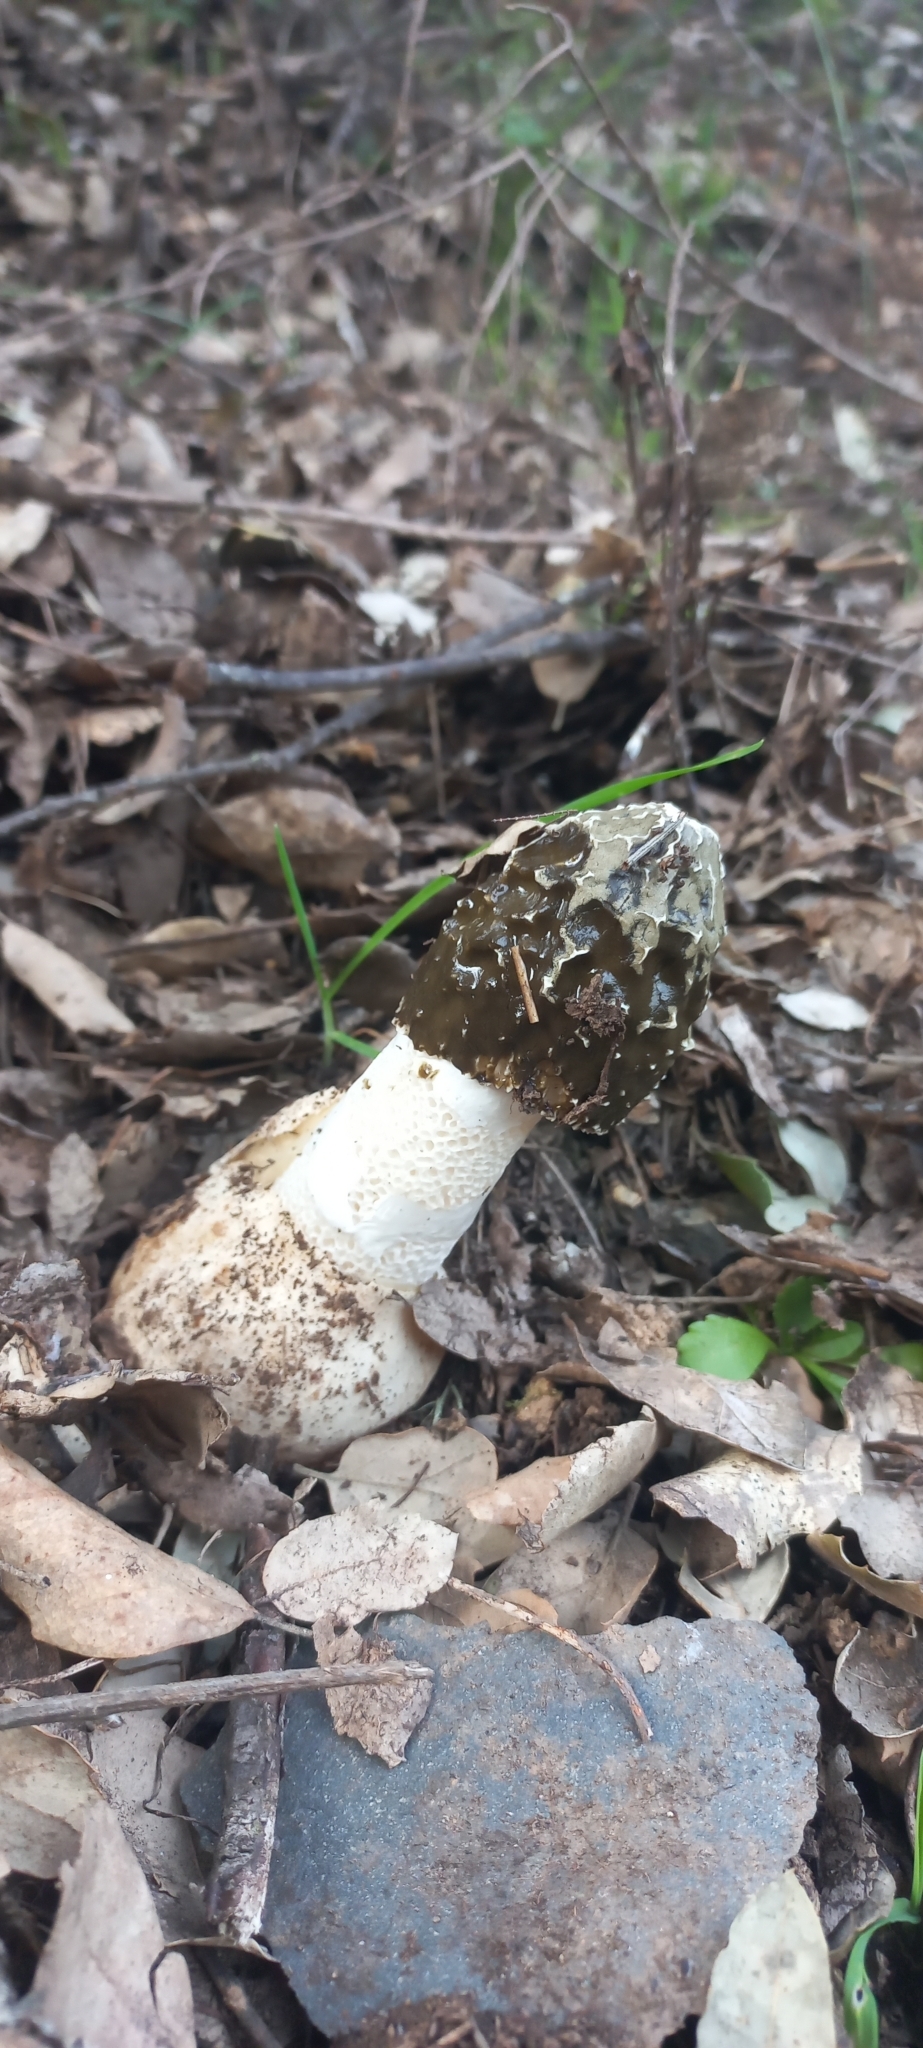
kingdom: Fungi
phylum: Basidiomycota
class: Agaricomycetes
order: Phallales
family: Phallaceae
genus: Phallus
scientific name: Phallus impudicus
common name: Common stinkhorn
